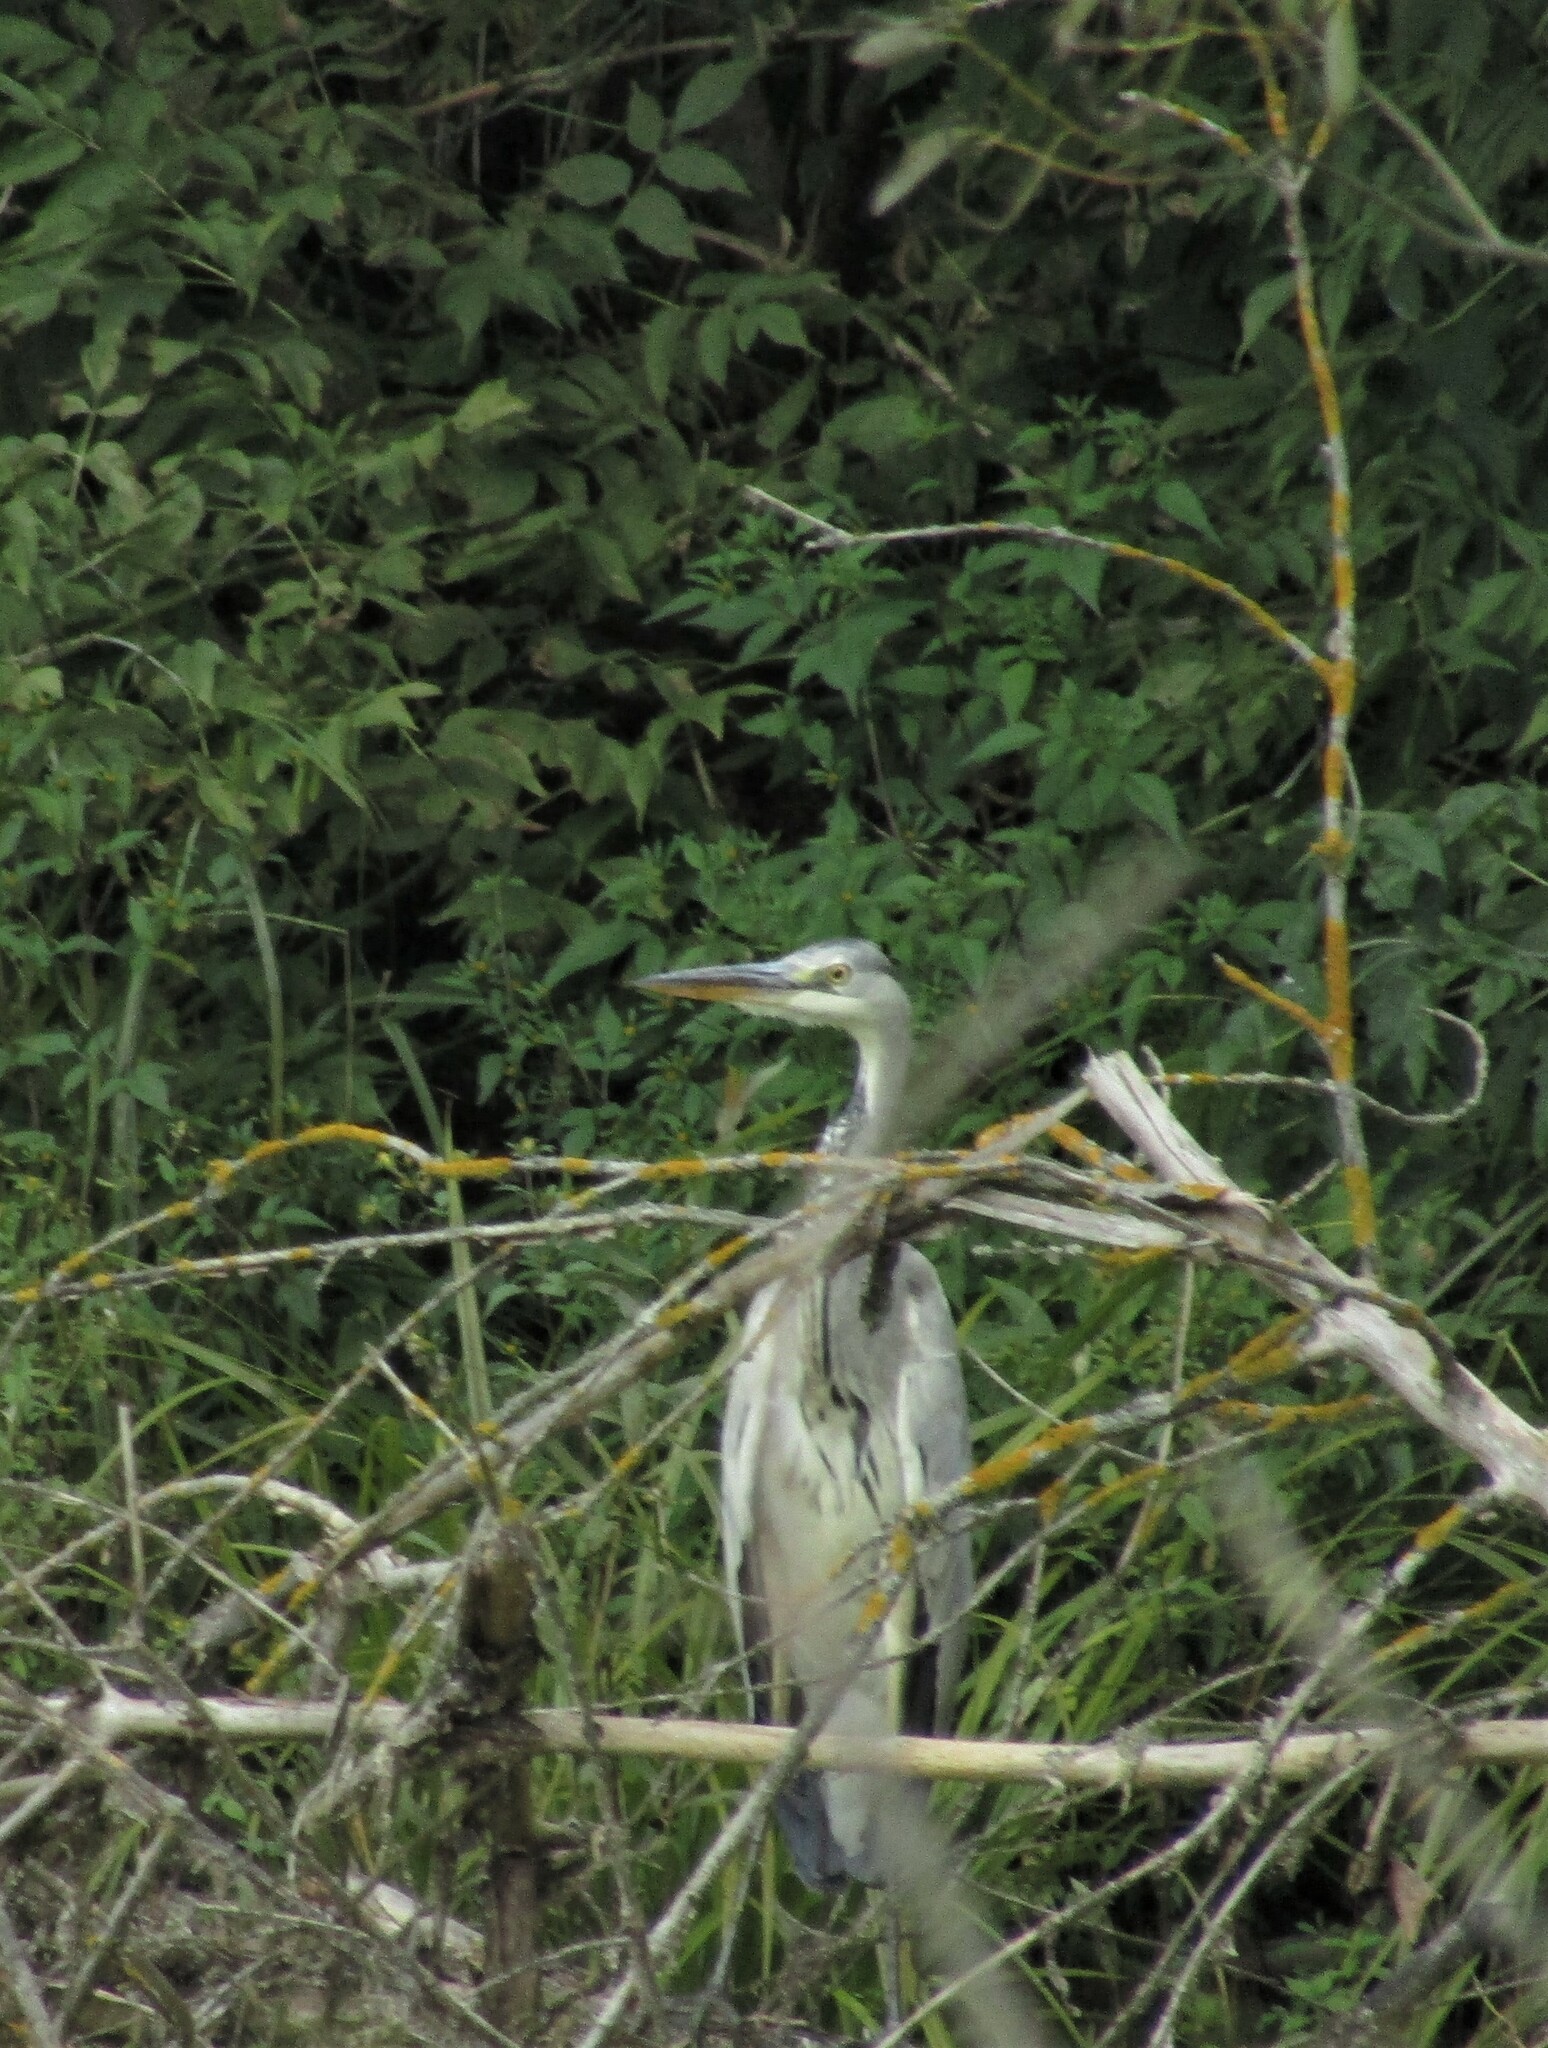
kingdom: Animalia
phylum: Chordata
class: Aves
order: Pelecaniformes
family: Ardeidae
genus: Ardea
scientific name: Ardea cinerea
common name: Grey heron
